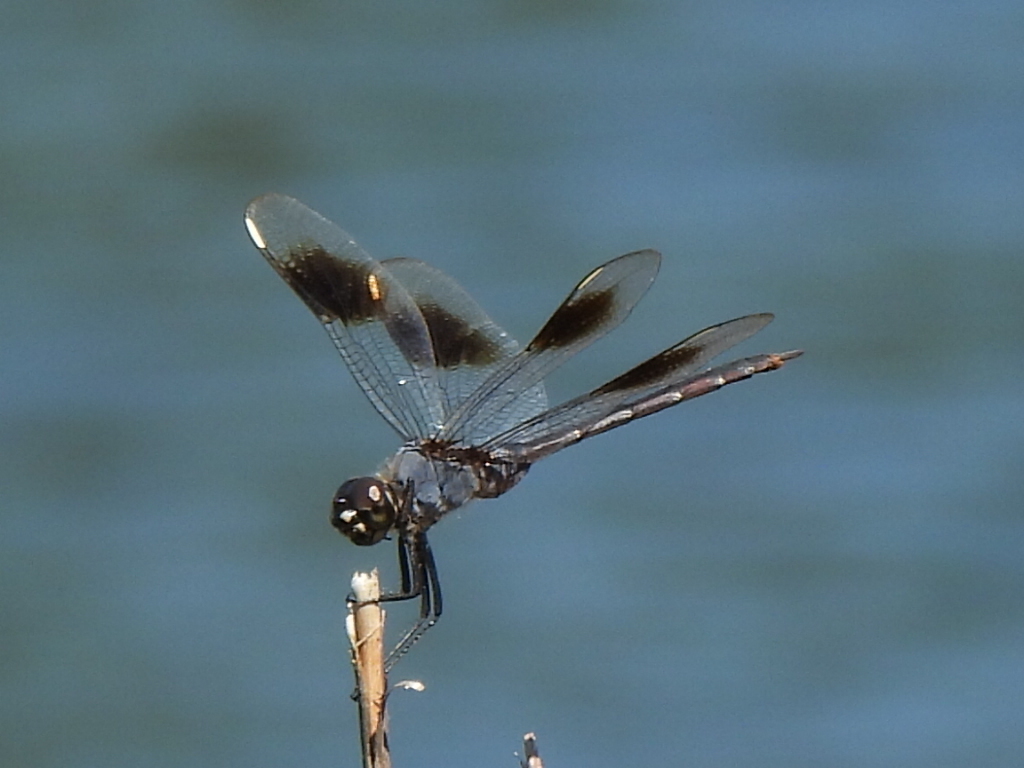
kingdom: Animalia
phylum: Arthropoda
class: Insecta
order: Odonata
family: Libellulidae
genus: Brachymesia
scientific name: Brachymesia gravida
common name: Four-spotted pennant
